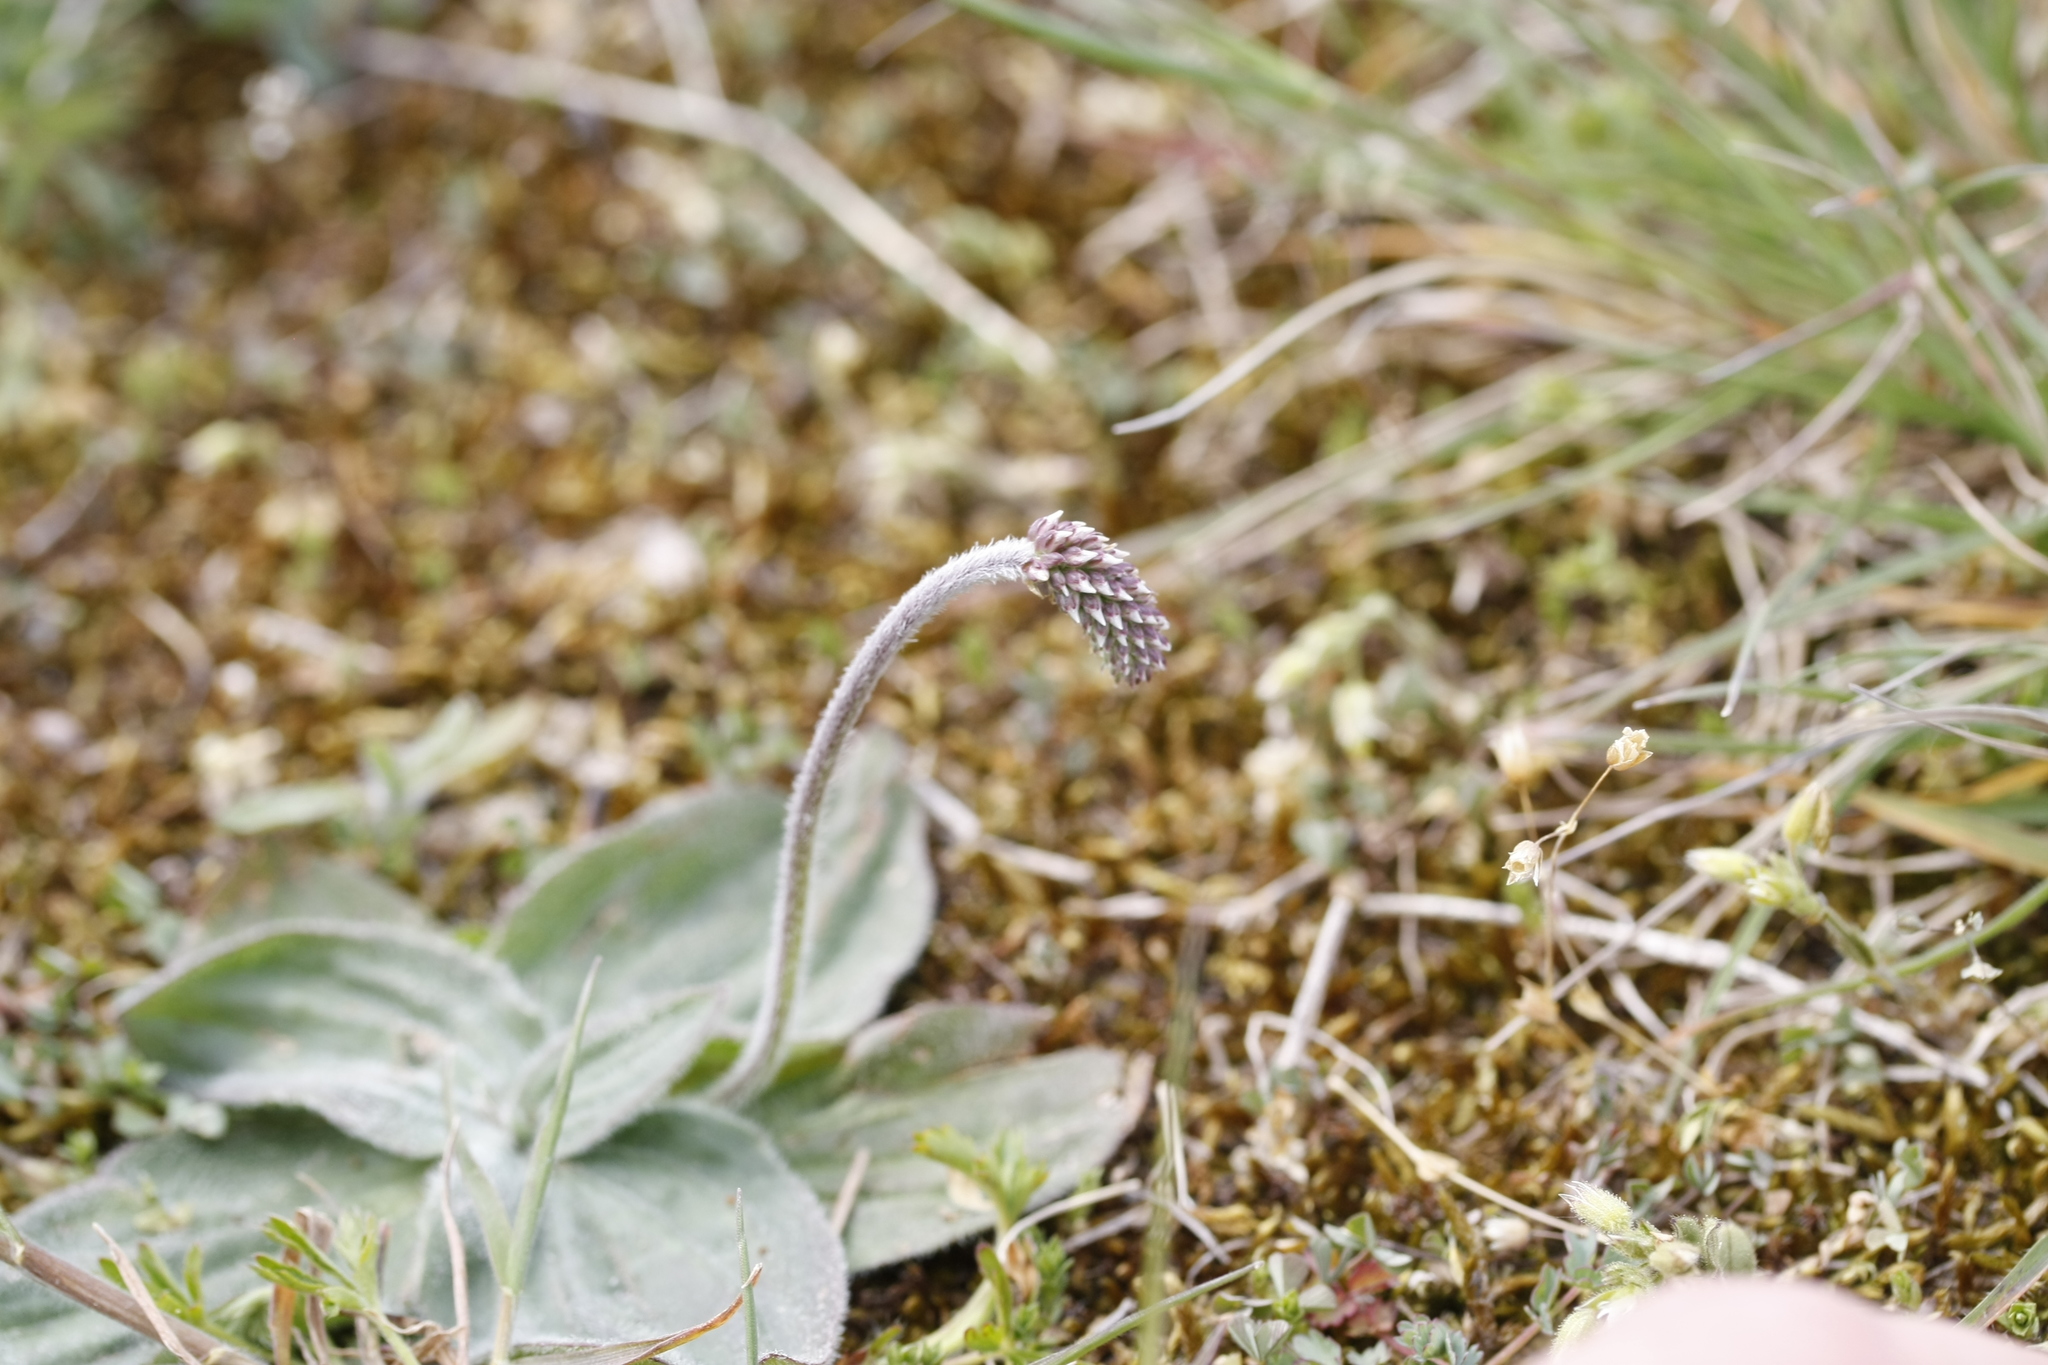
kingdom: Plantae
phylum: Tracheophyta
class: Magnoliopsida
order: Lamiales
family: Plantaginaceae
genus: Plantago
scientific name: Plantago media
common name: Hoary plantain
